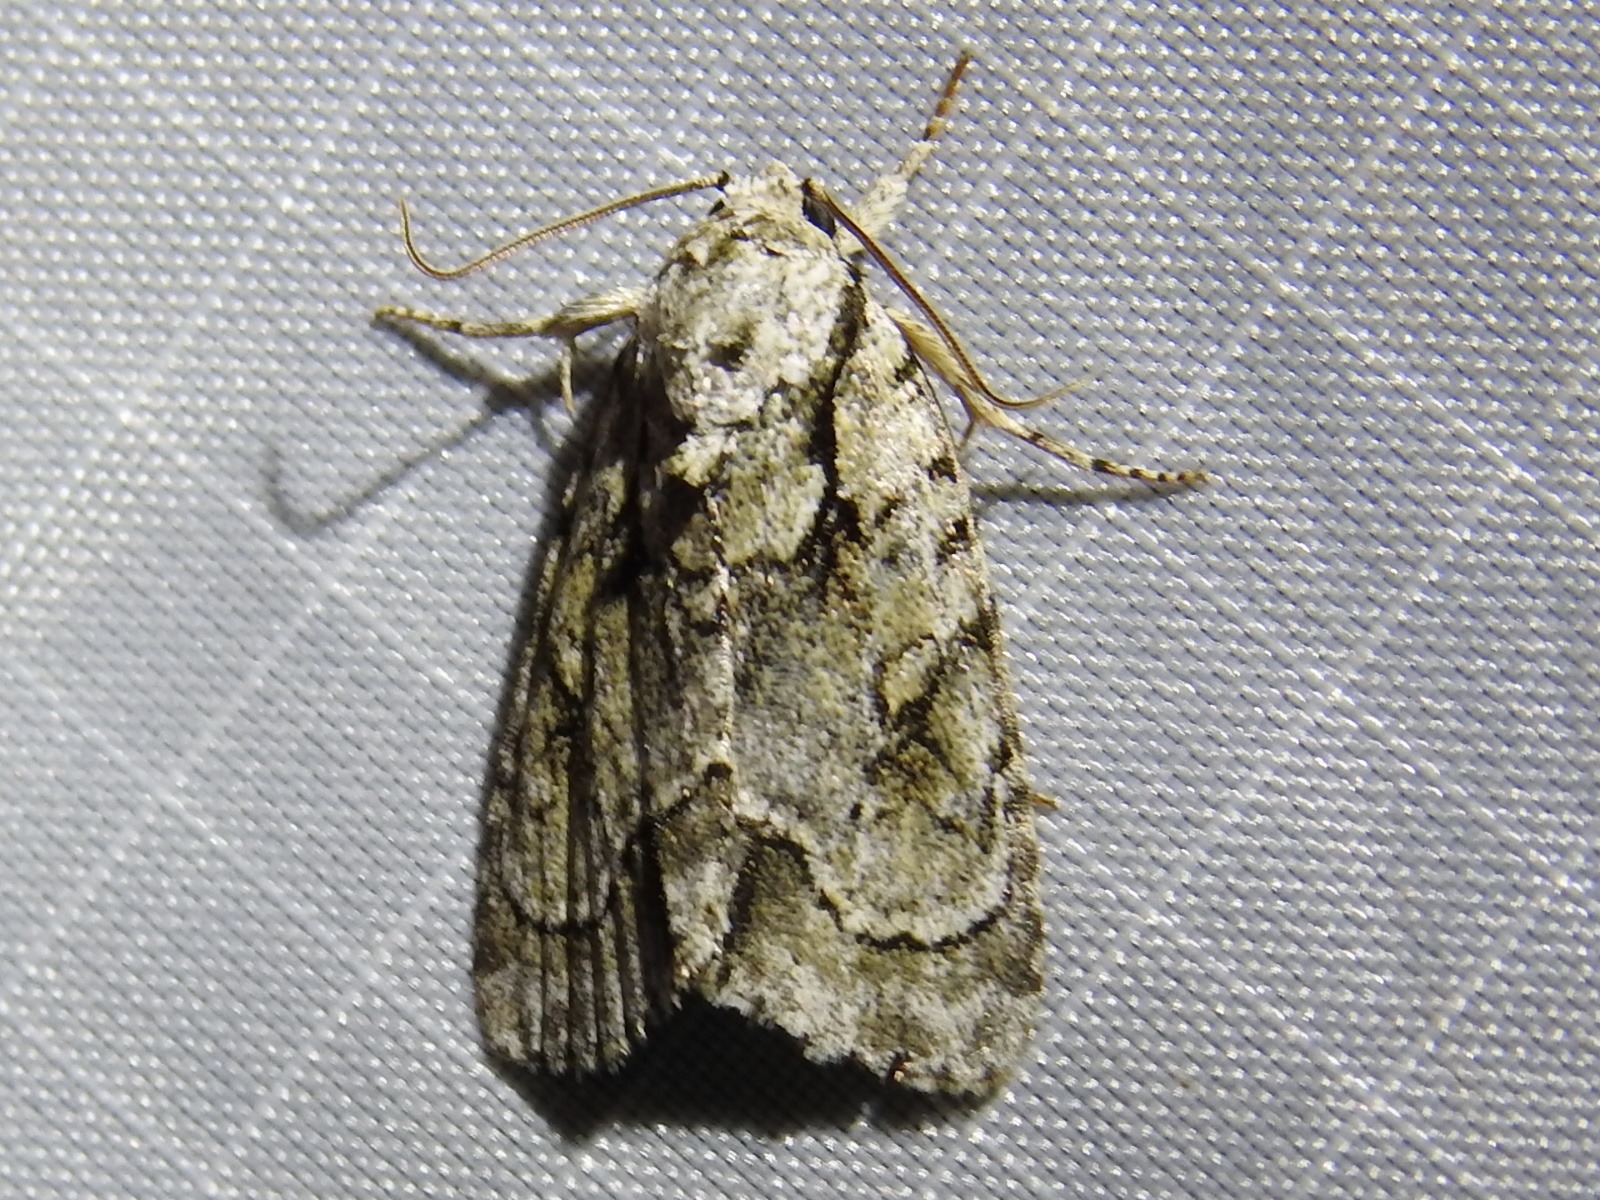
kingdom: Animalia
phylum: Arthropoda
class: Insecta
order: Lepidoptera
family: Noctuidae
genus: Acronicta
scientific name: Acronicta vinnula
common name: Delightful dagger
